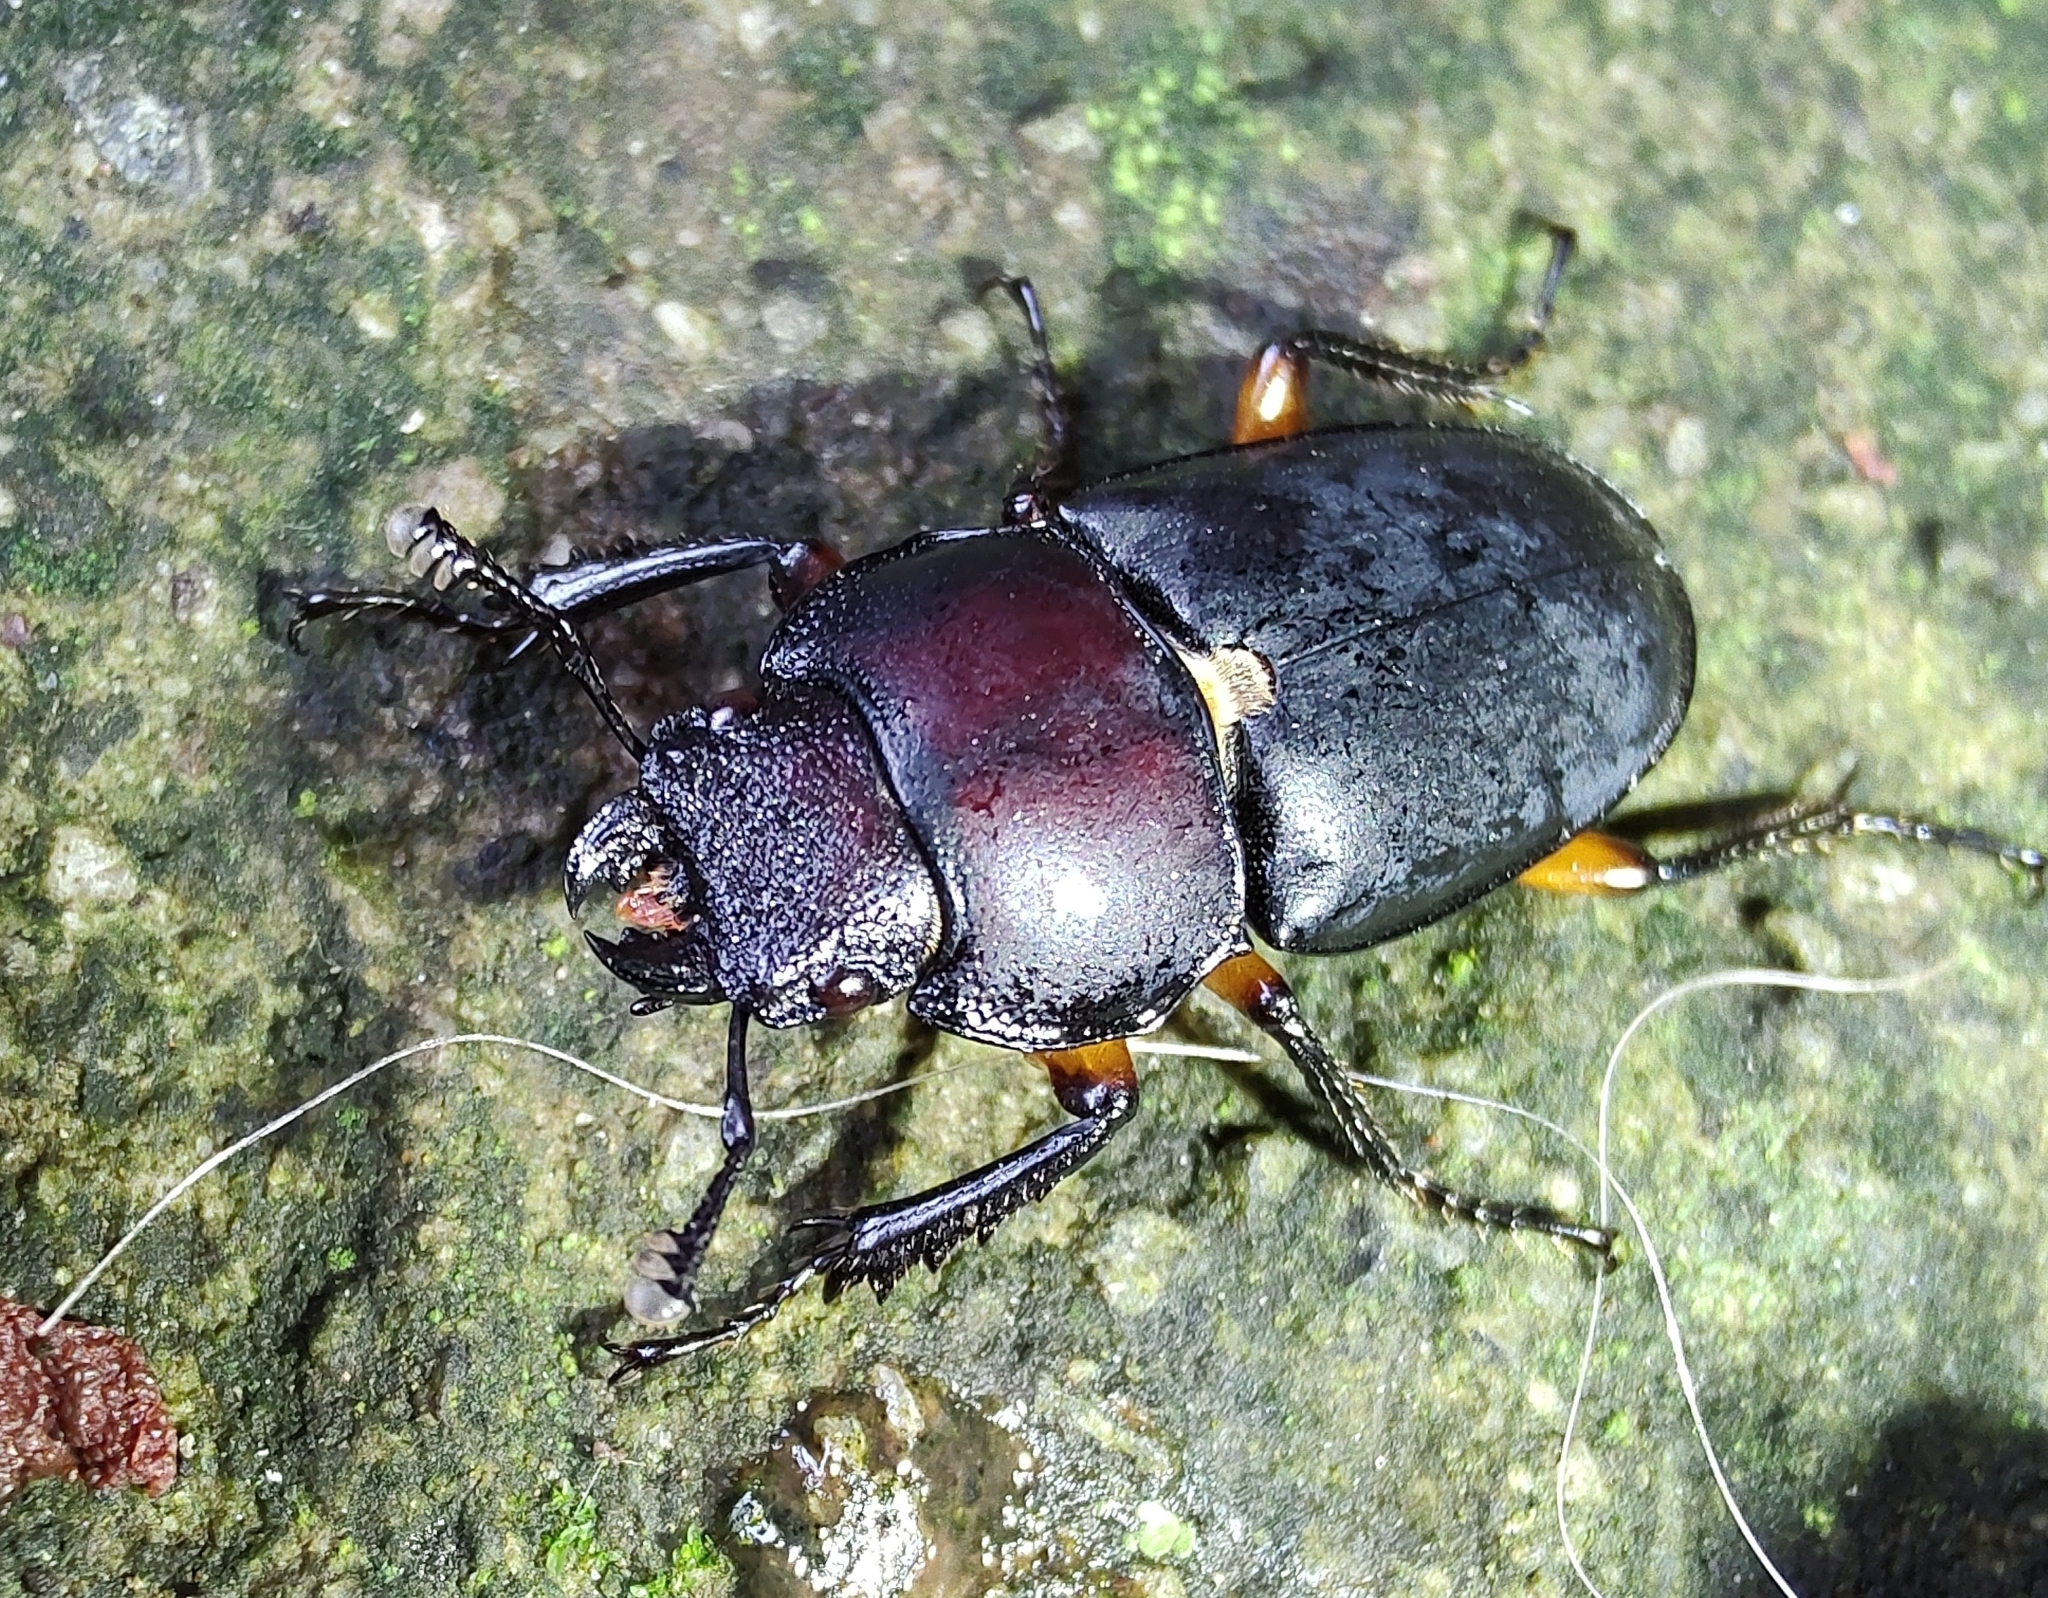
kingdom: Animalia
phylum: Arthropoda
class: Insecta
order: Coleoptera
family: Lucanidae
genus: Leptinopterus
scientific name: Leptinopterus femoratus
